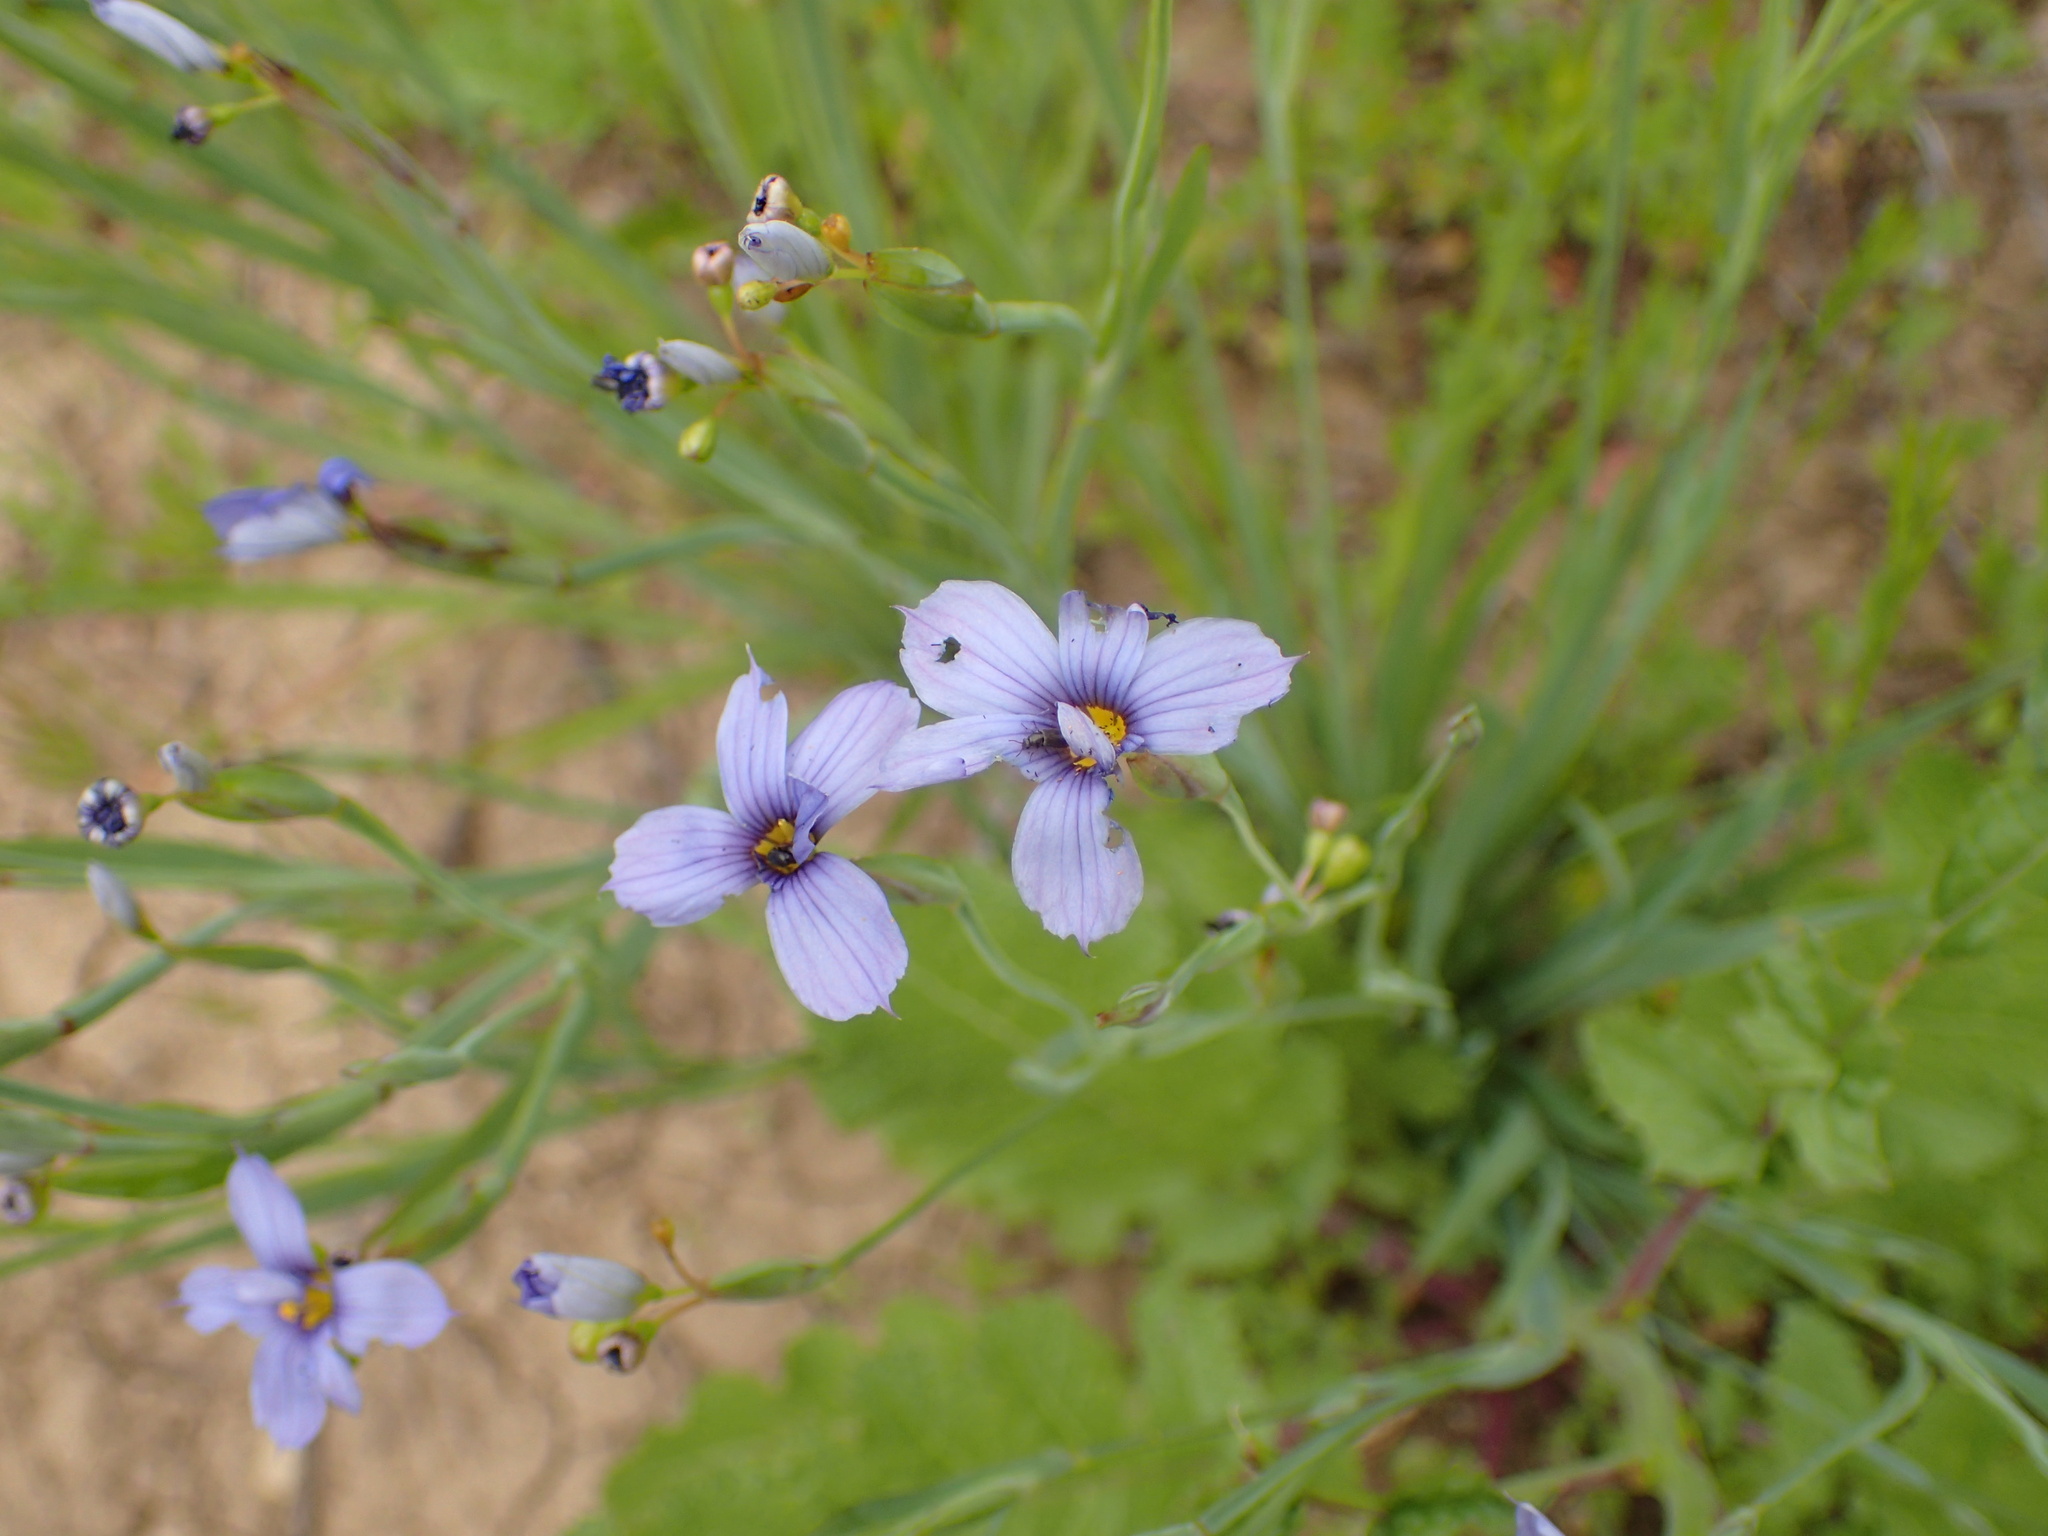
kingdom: Plantae
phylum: Tracheophyta
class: Liliopsida
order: Asparagales
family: Iridaceae
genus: Sisyrinchium
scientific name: Sisyrinchium bellum
